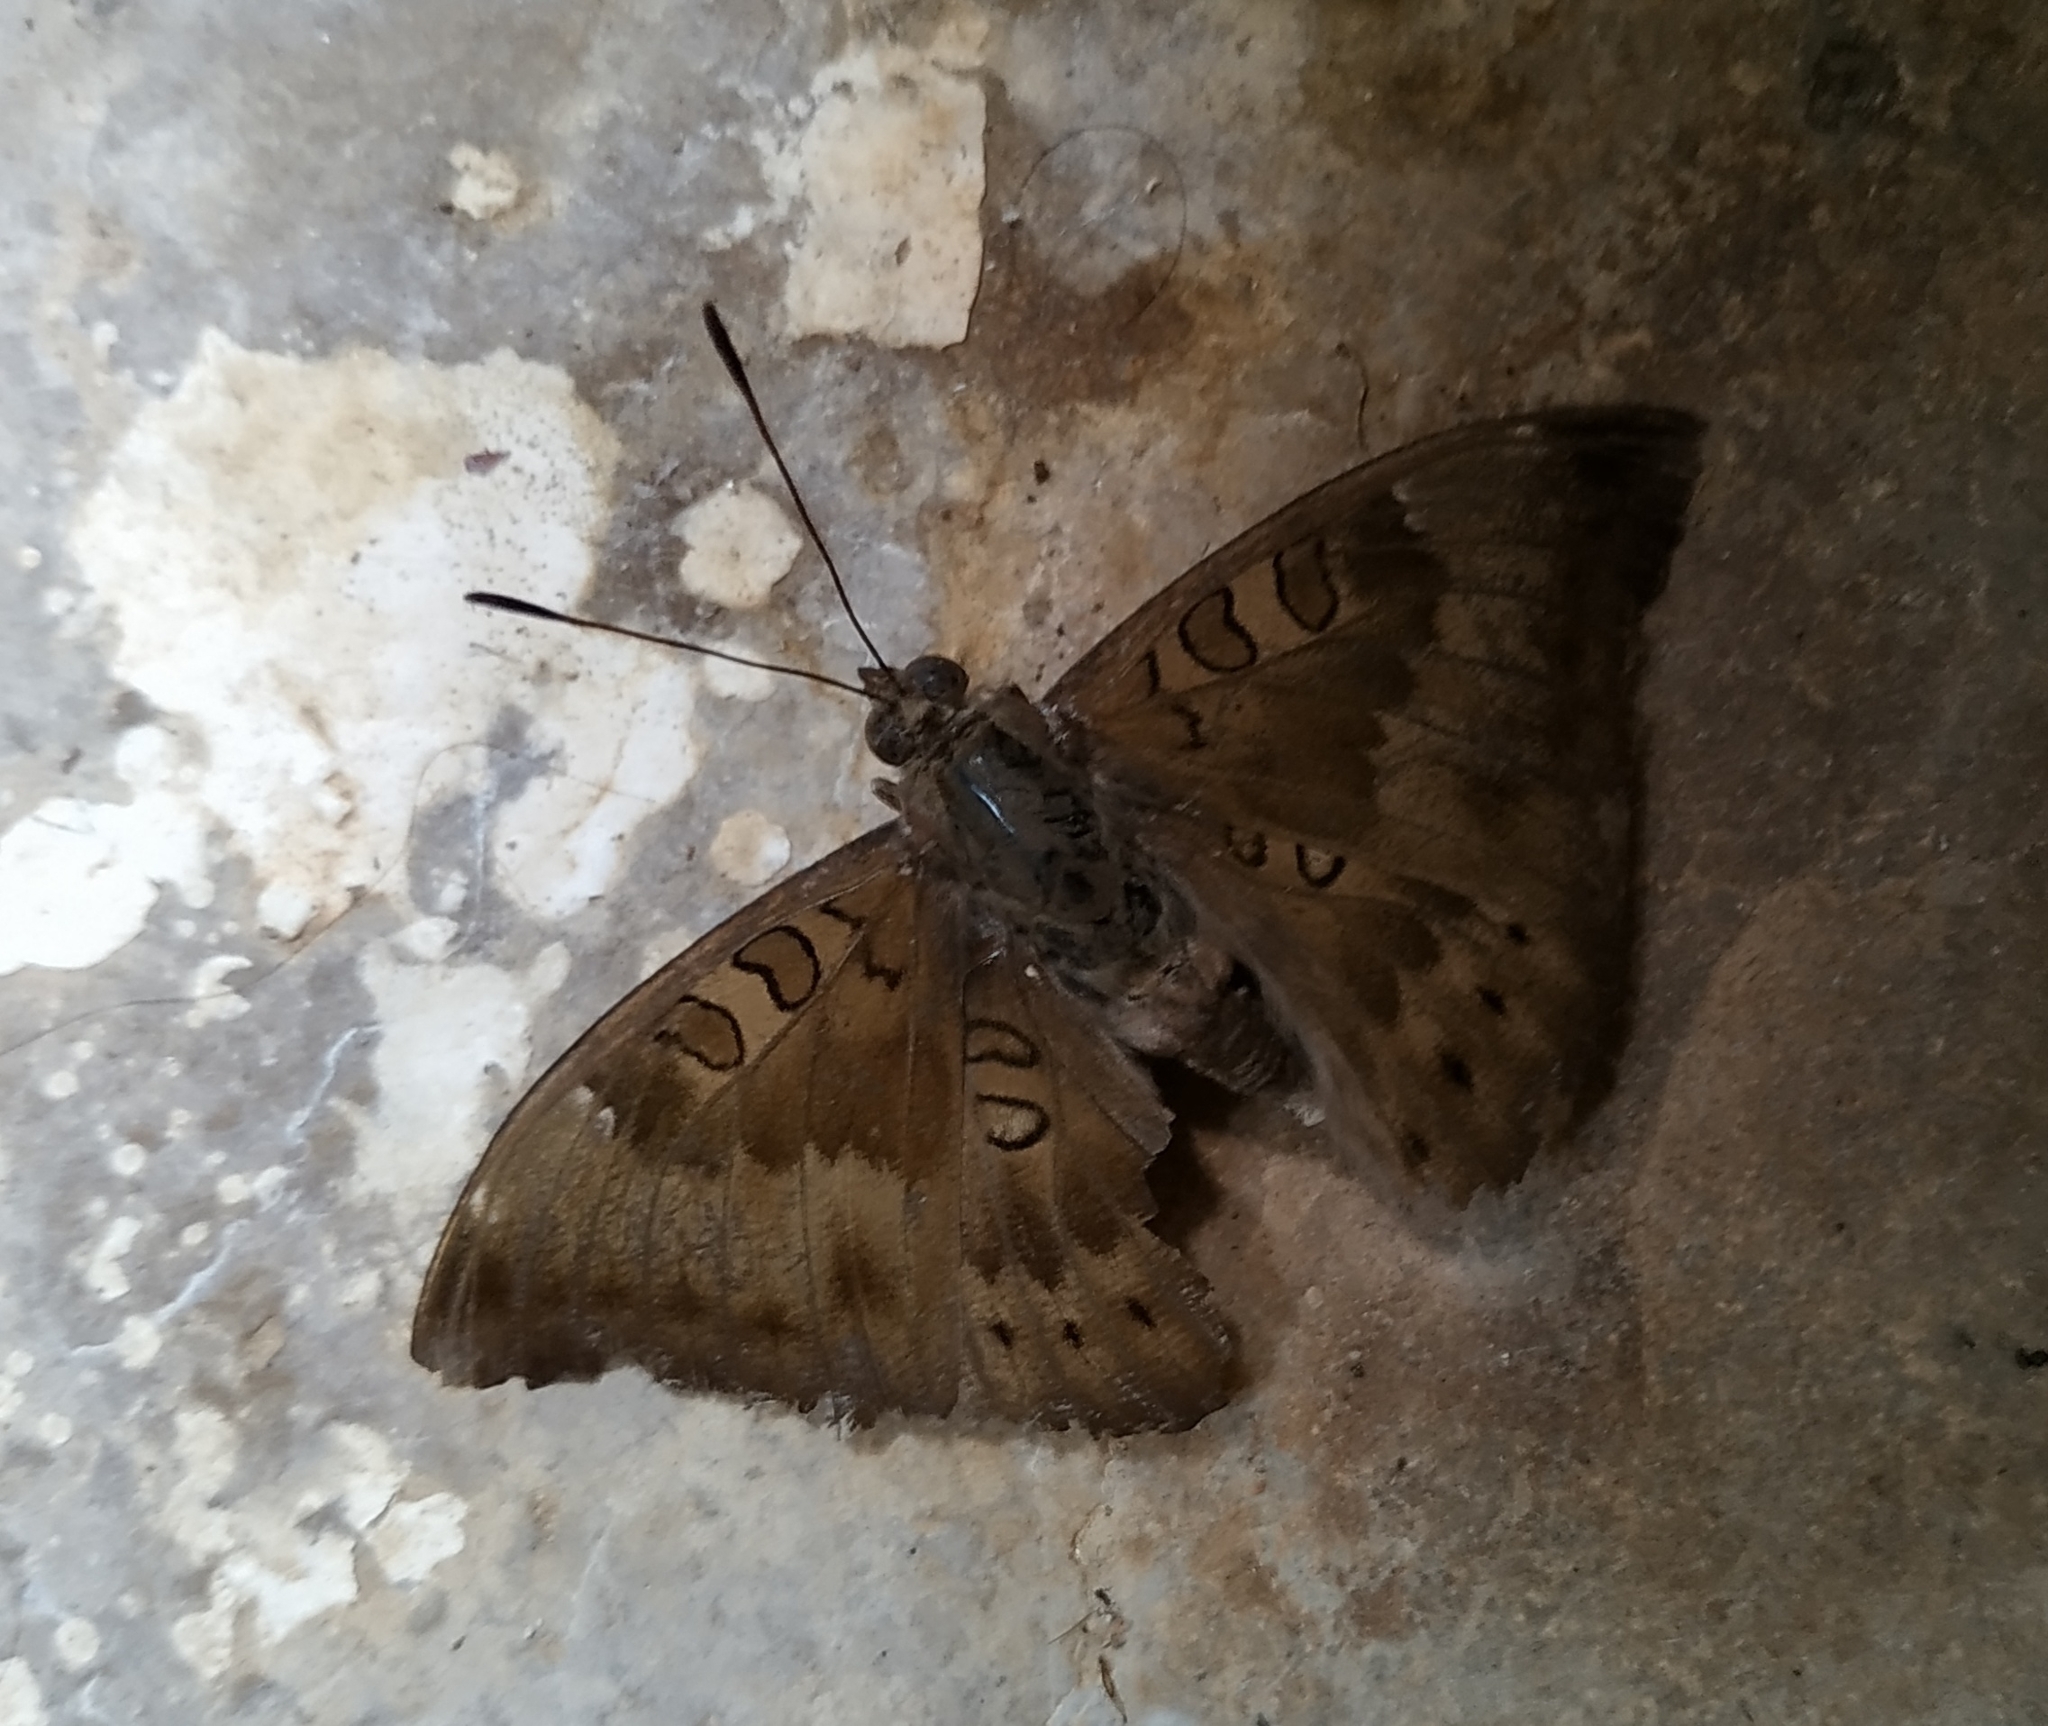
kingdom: Animalia
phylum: Arthropoda
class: Insecta
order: Lepidoptera
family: Nymphalidae
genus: Euthalia
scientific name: Euthalia aconthea
